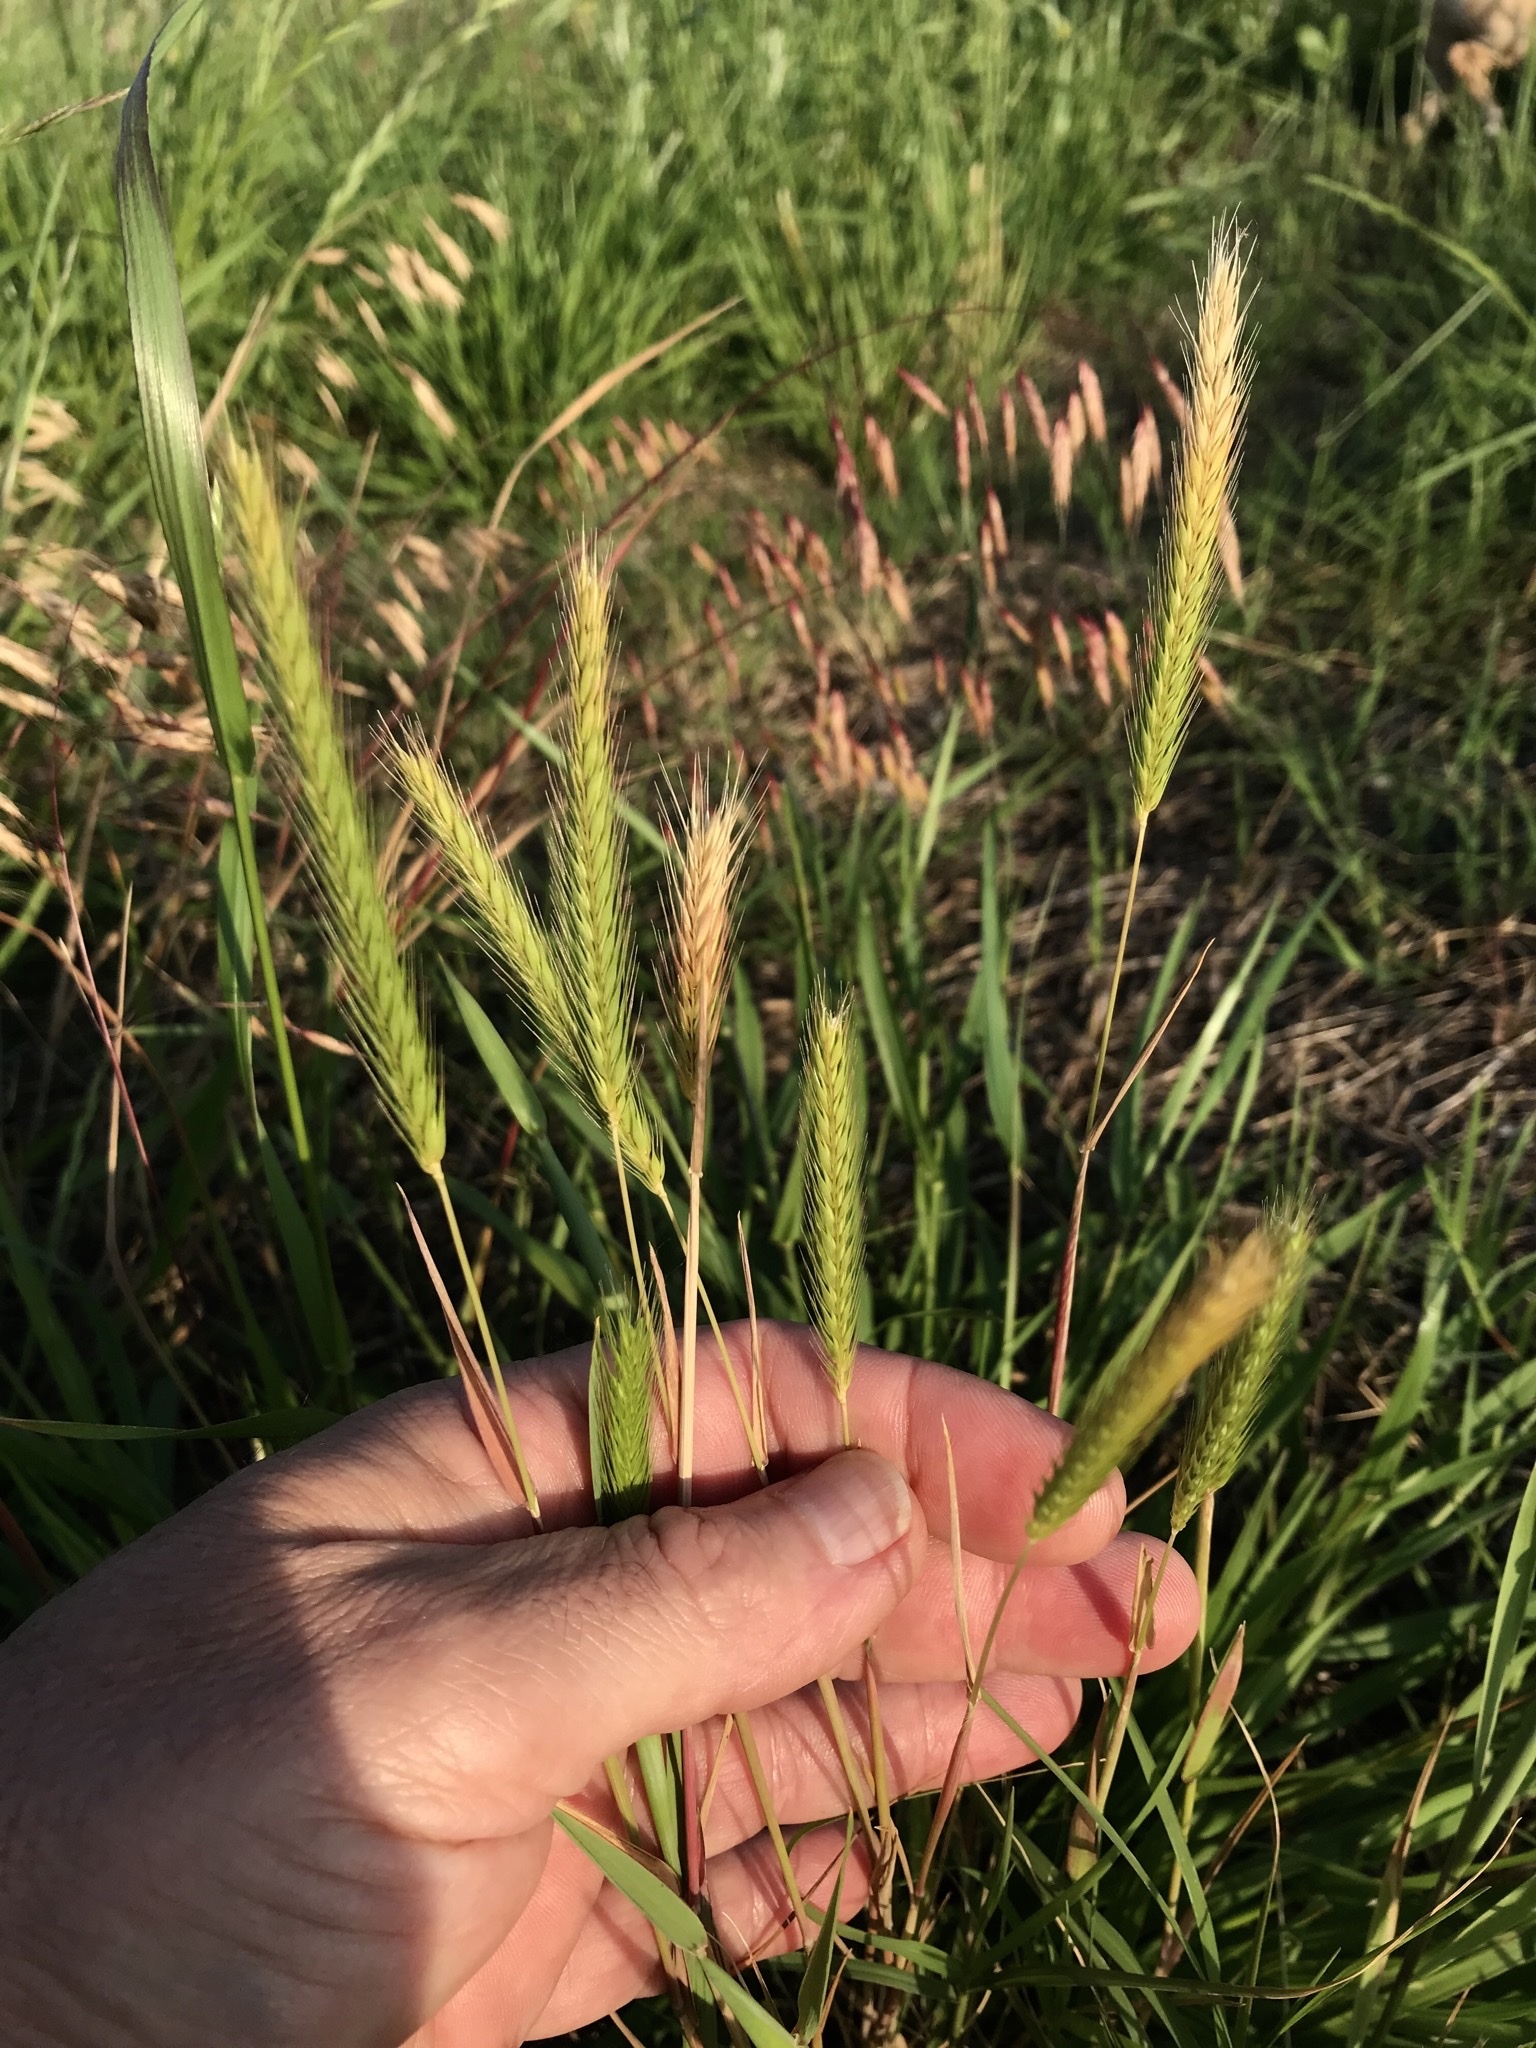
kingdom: Plantae
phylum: Tracheophyta
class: Liliopsida
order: Poales
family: Poaceae
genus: Hordeum
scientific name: Hordeum pusillum
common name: Little barley
